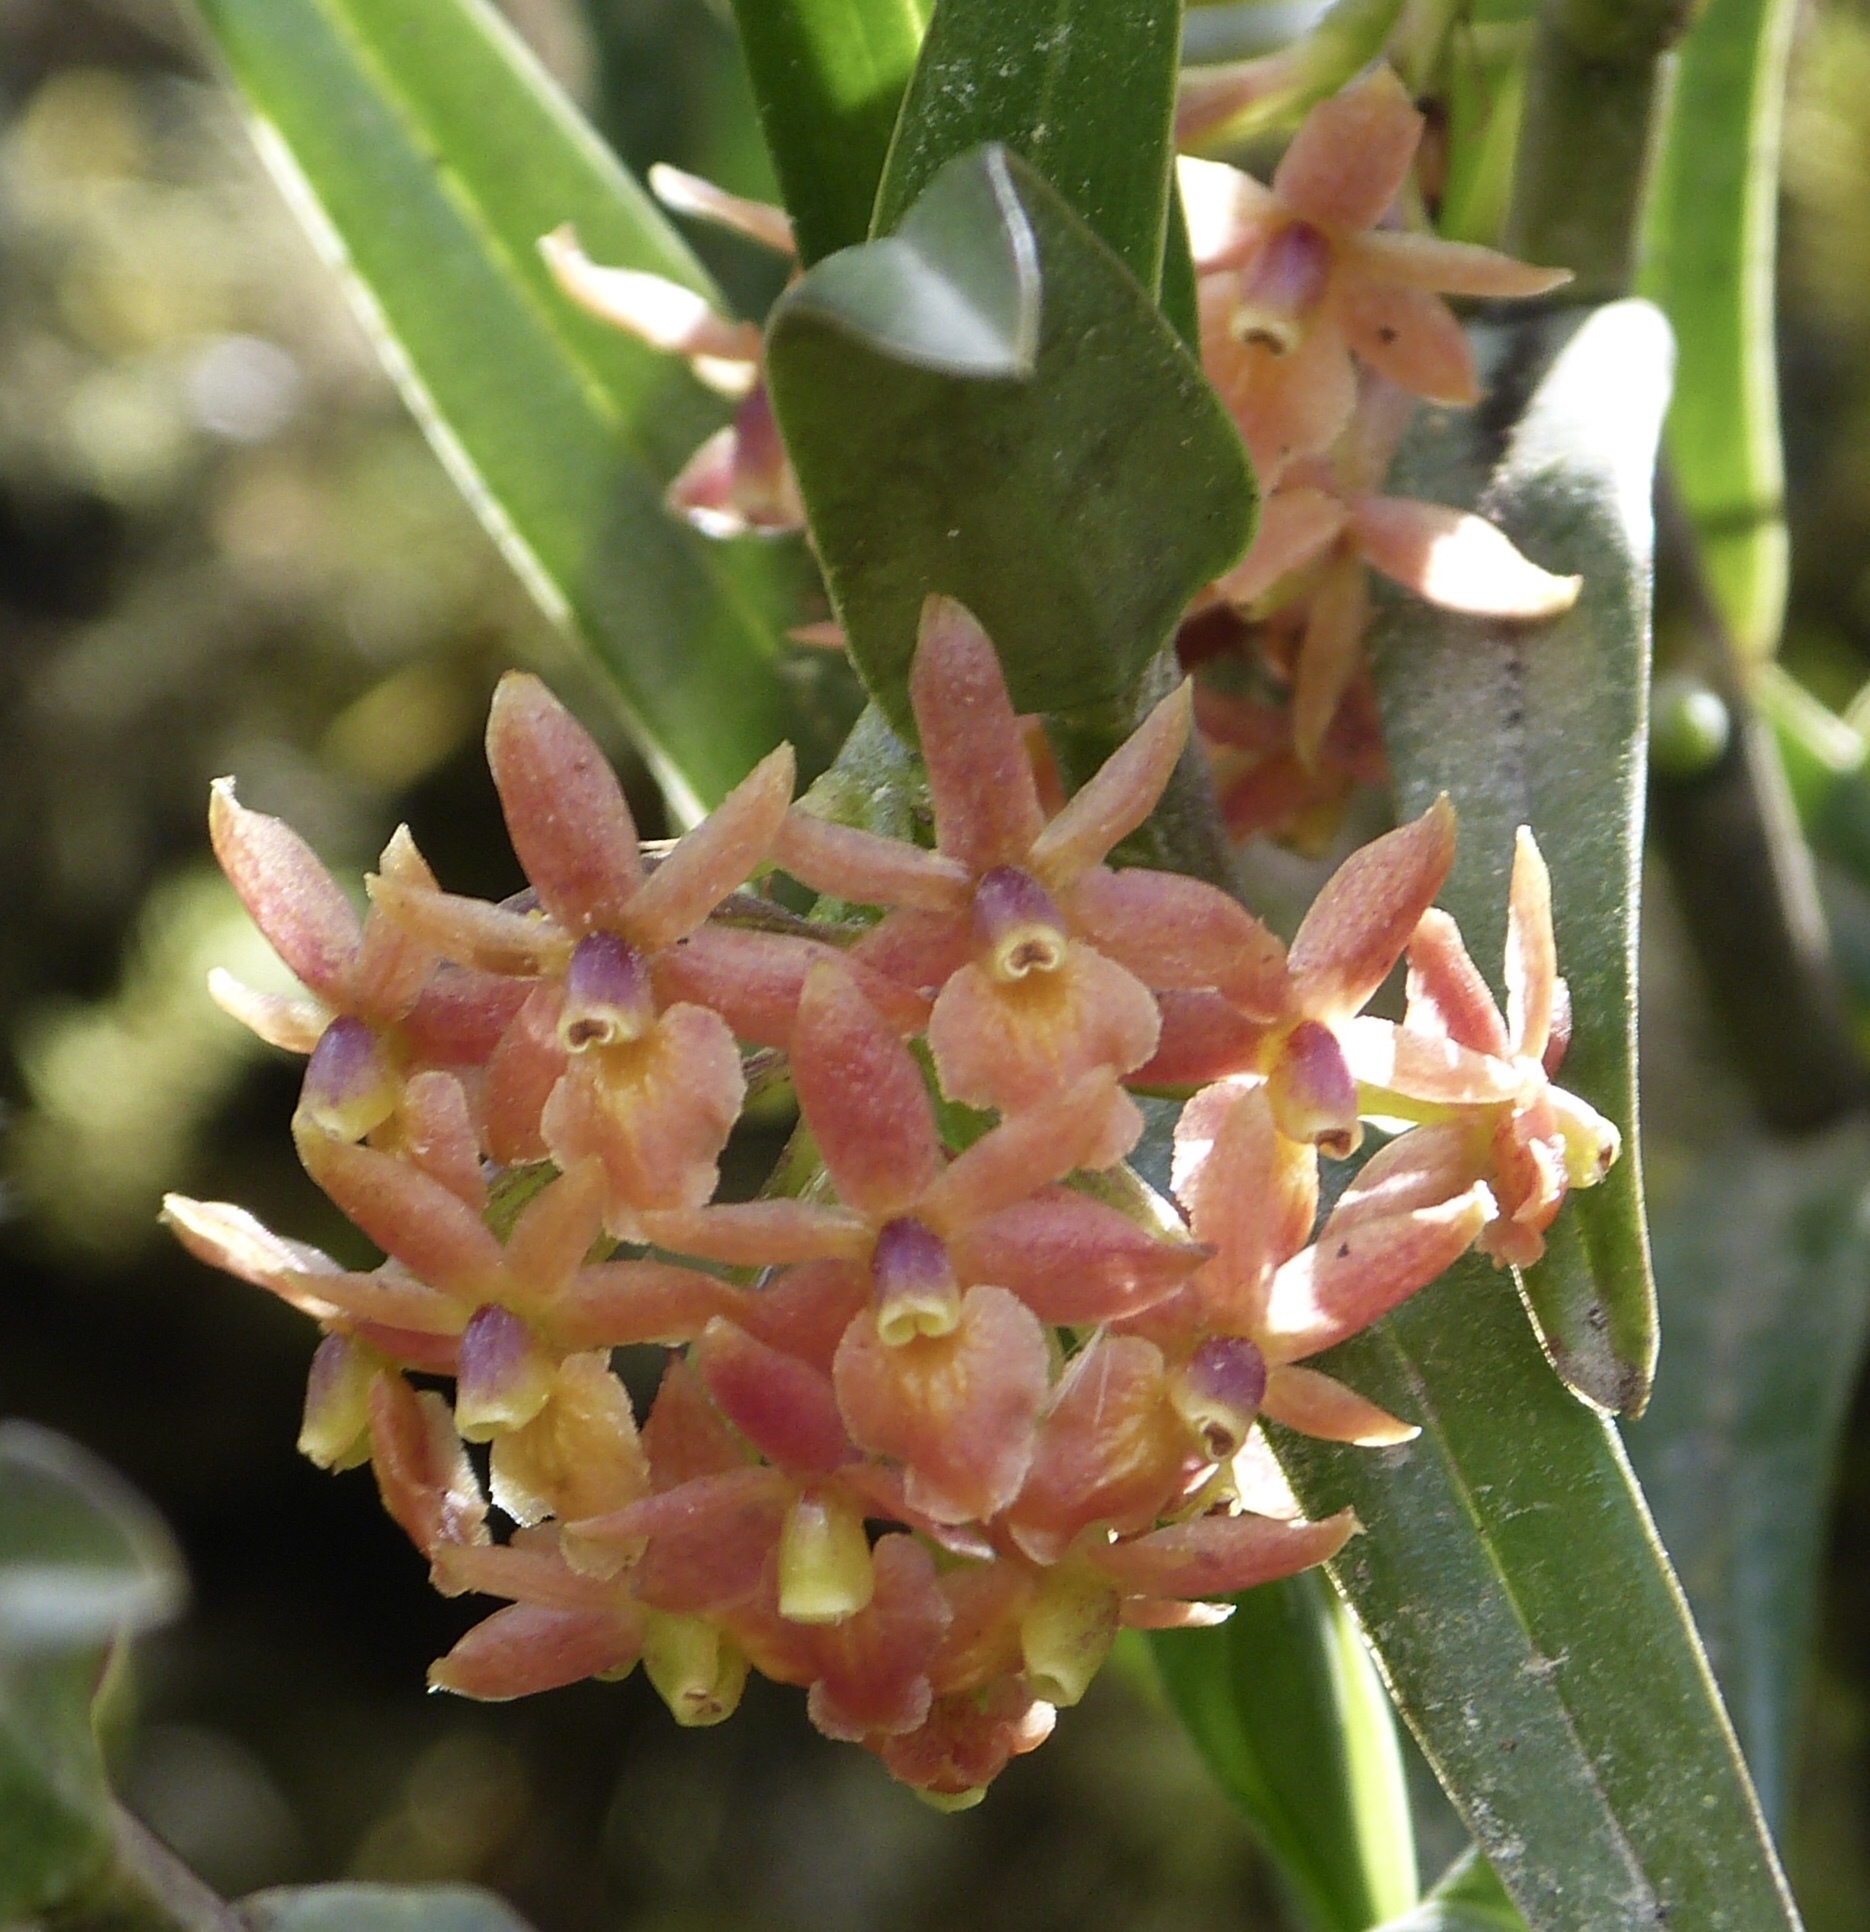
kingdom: Plantae
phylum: Tracheophyta
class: Liliopsida
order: Asparagales
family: Orchidaceae
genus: Epidendrum
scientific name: Epidendrum oxysepalum
